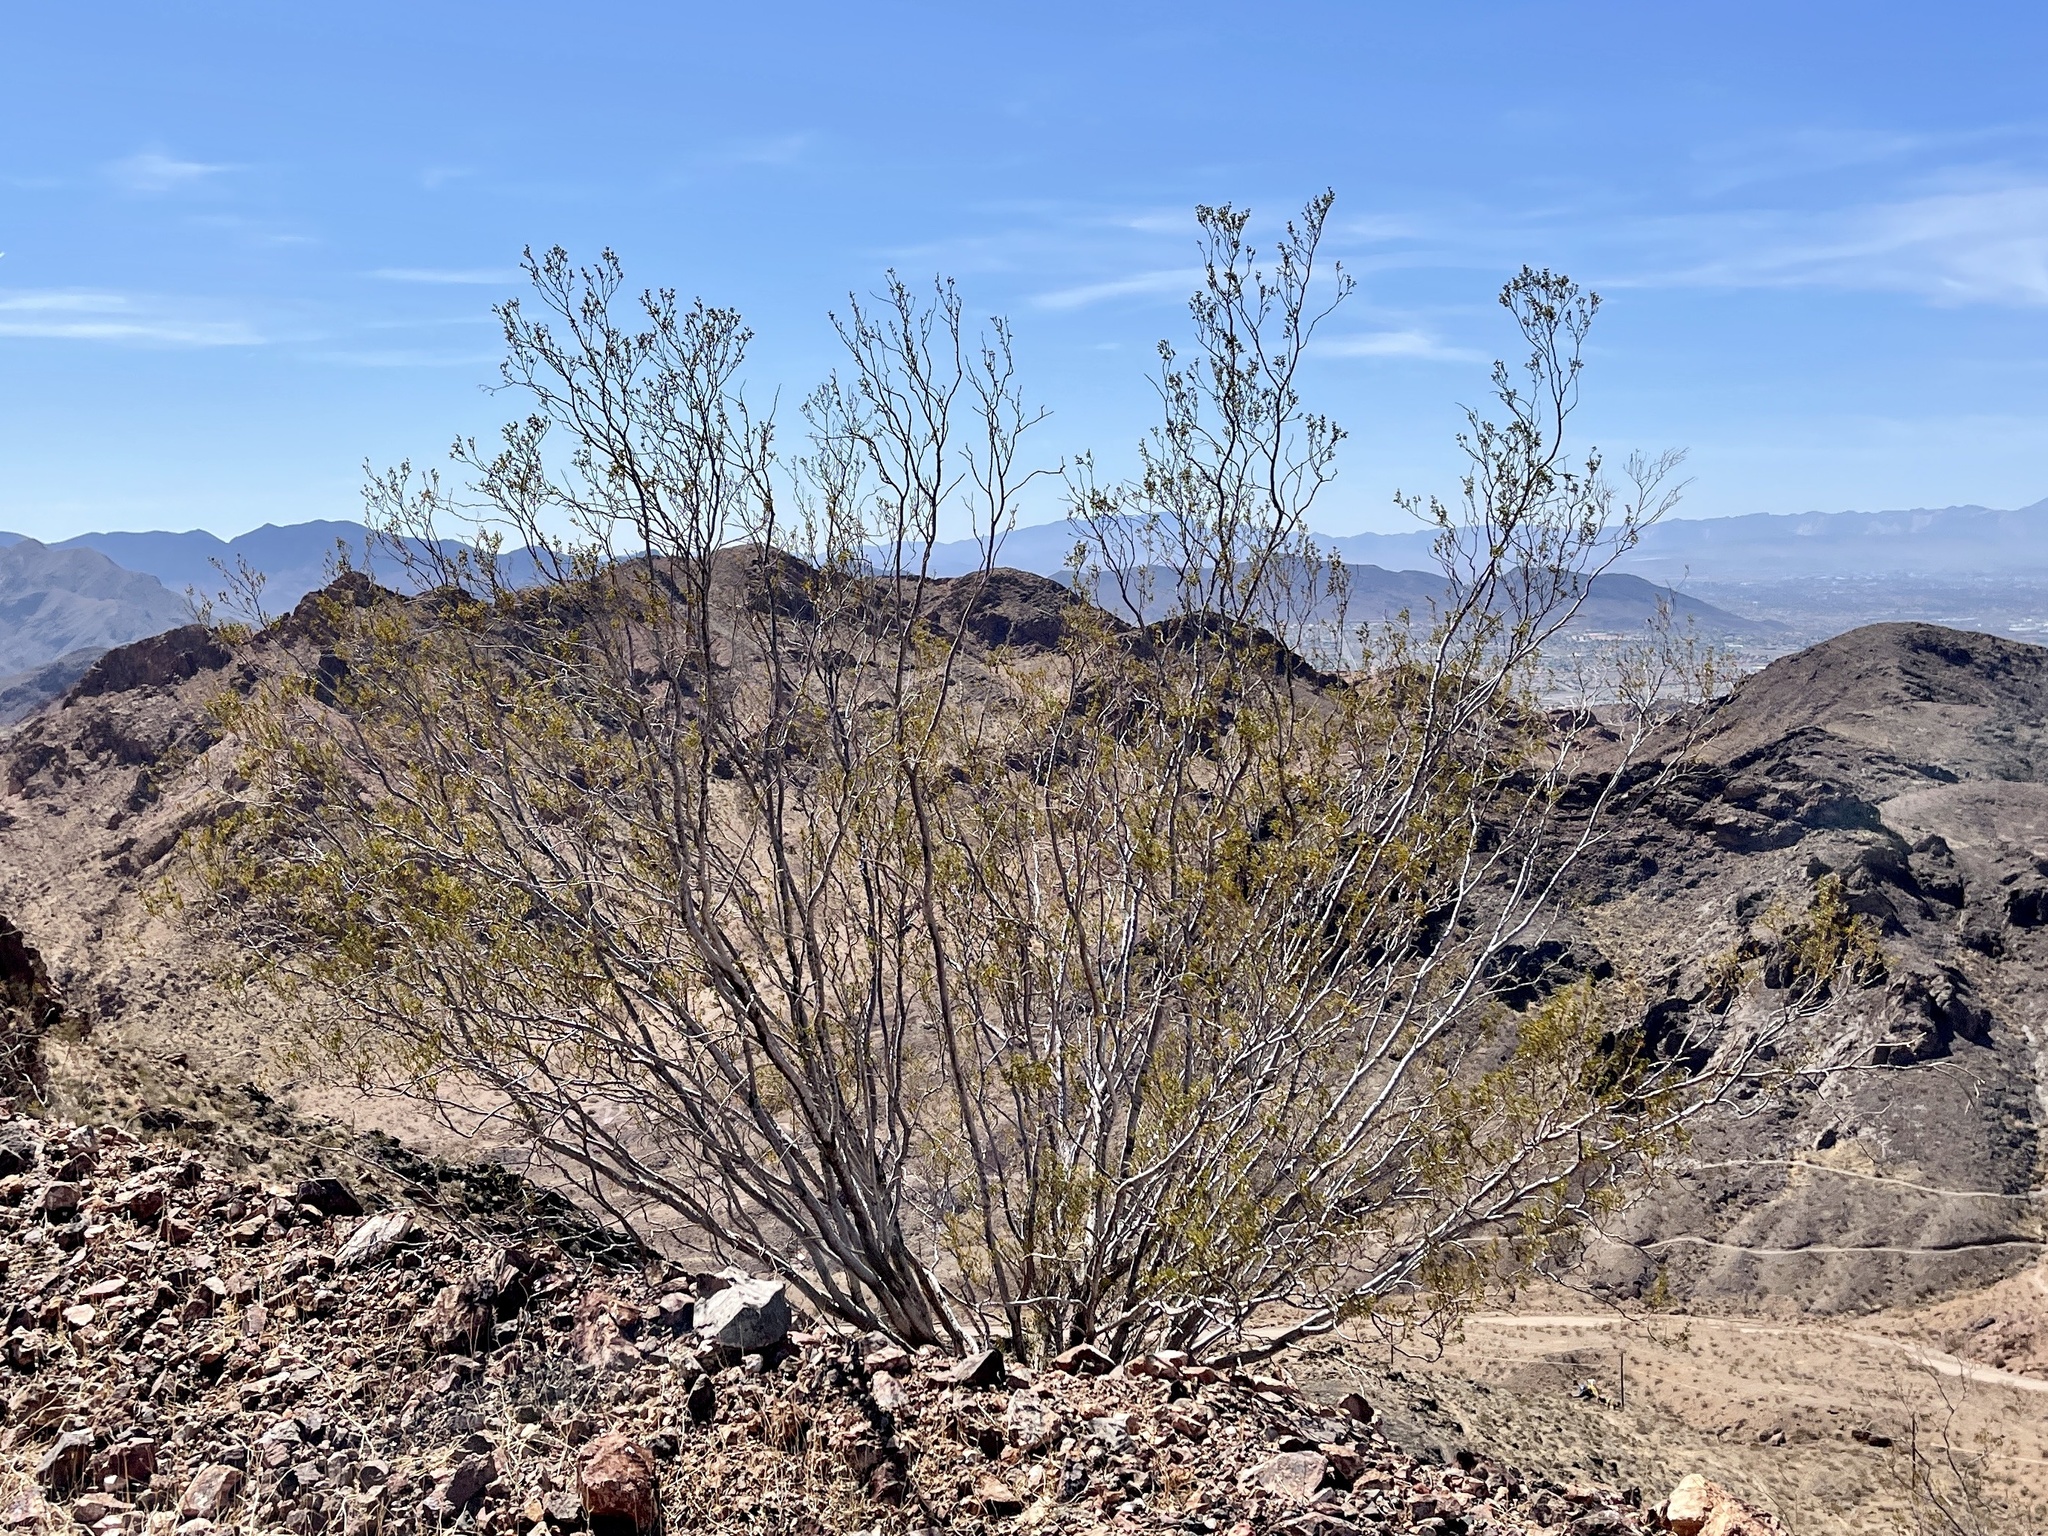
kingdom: Plantae
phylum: Tracheophyta
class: Magnoliopsida
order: Zygophyllales
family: Zygophyllaceae
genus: Larrea
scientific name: Larrea tridentata
